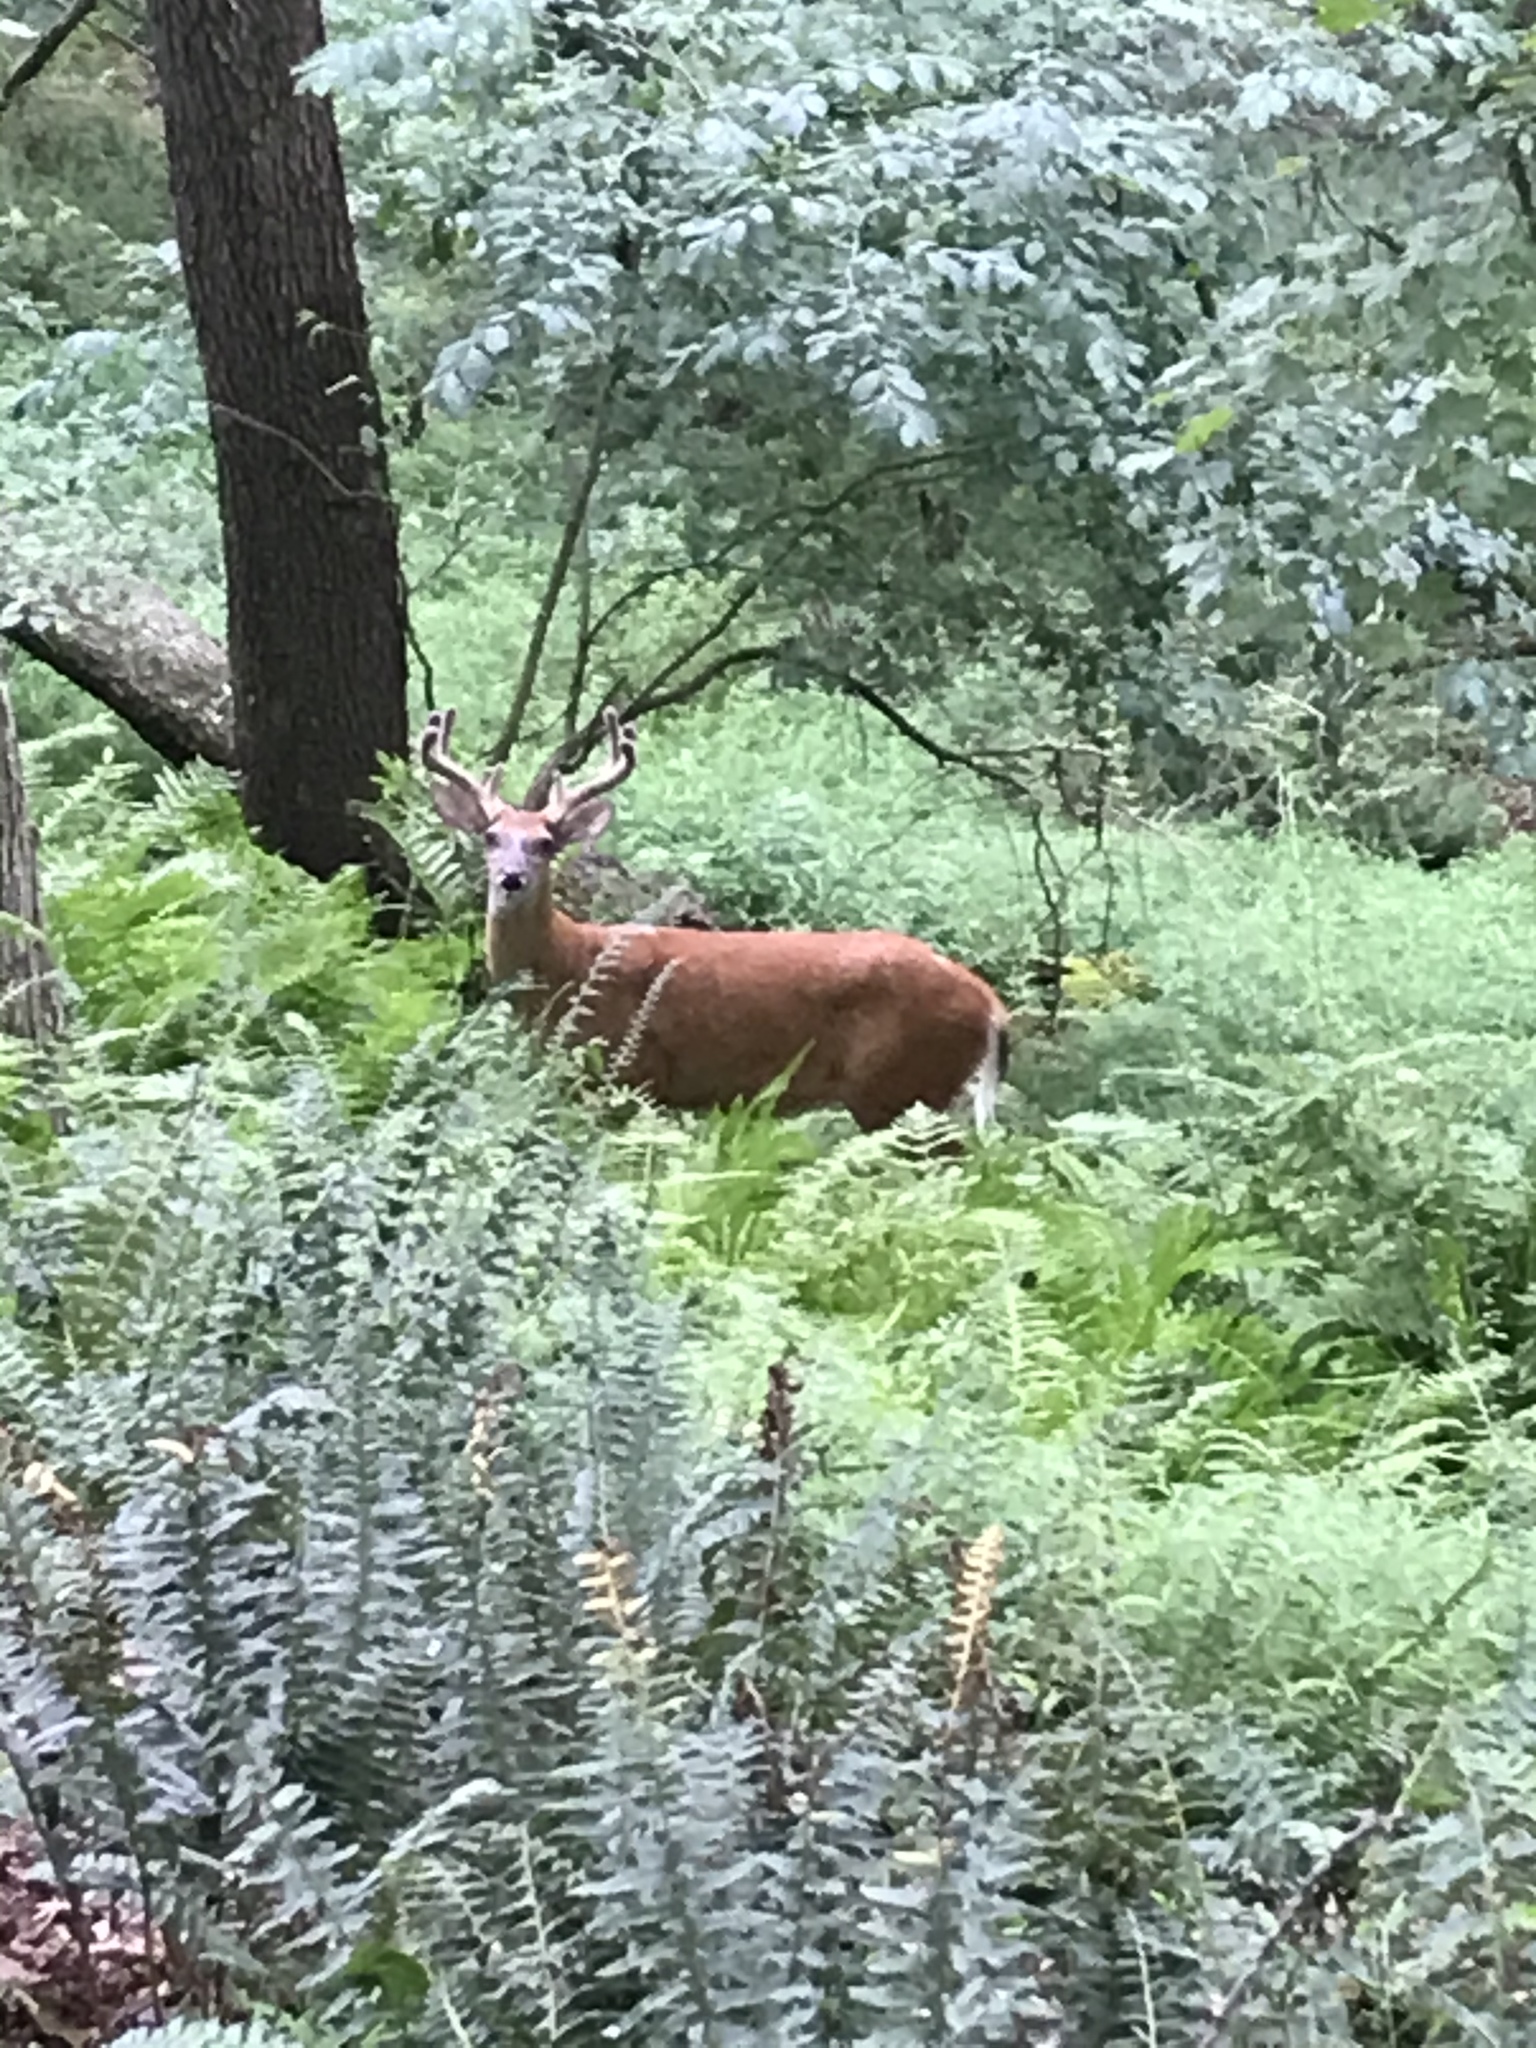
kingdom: Animalia
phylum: Chordata
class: Mammalia
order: Artiodactyla
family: Cervidae
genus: Odocoileus
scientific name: Odocoileus virginianus
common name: White-tailed deer
